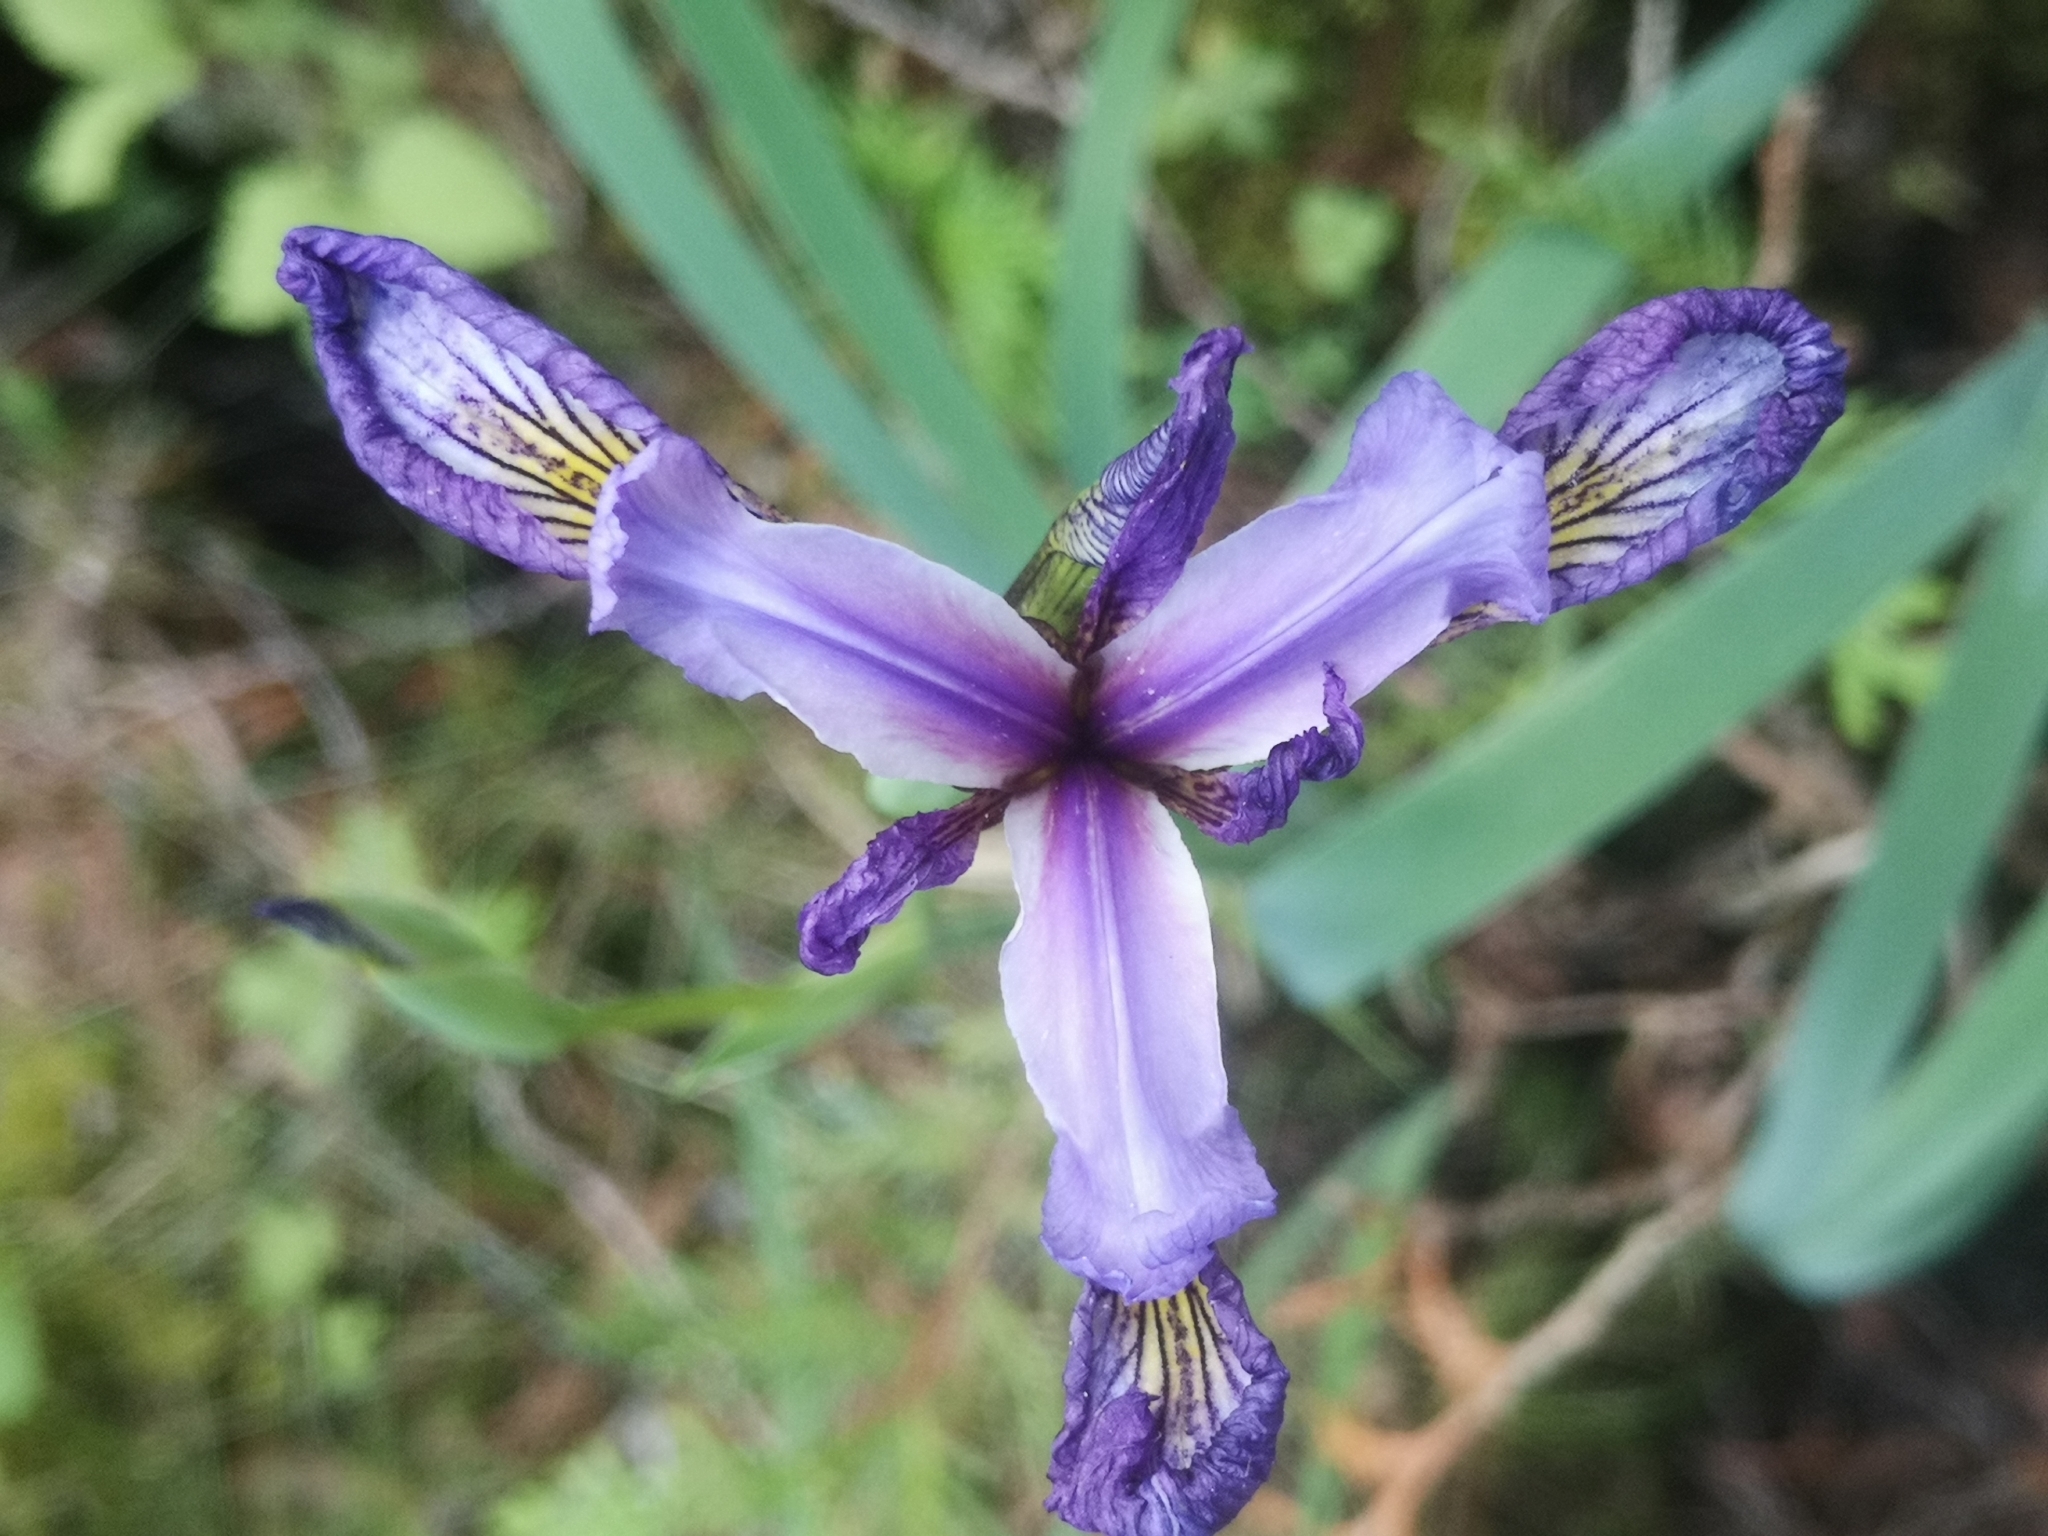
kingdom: Plantae
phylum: Tracheophyta
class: Liliopsida
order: Asparagales
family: Iridaceae
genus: Iris
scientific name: Iris versicolor
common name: Purple iris
